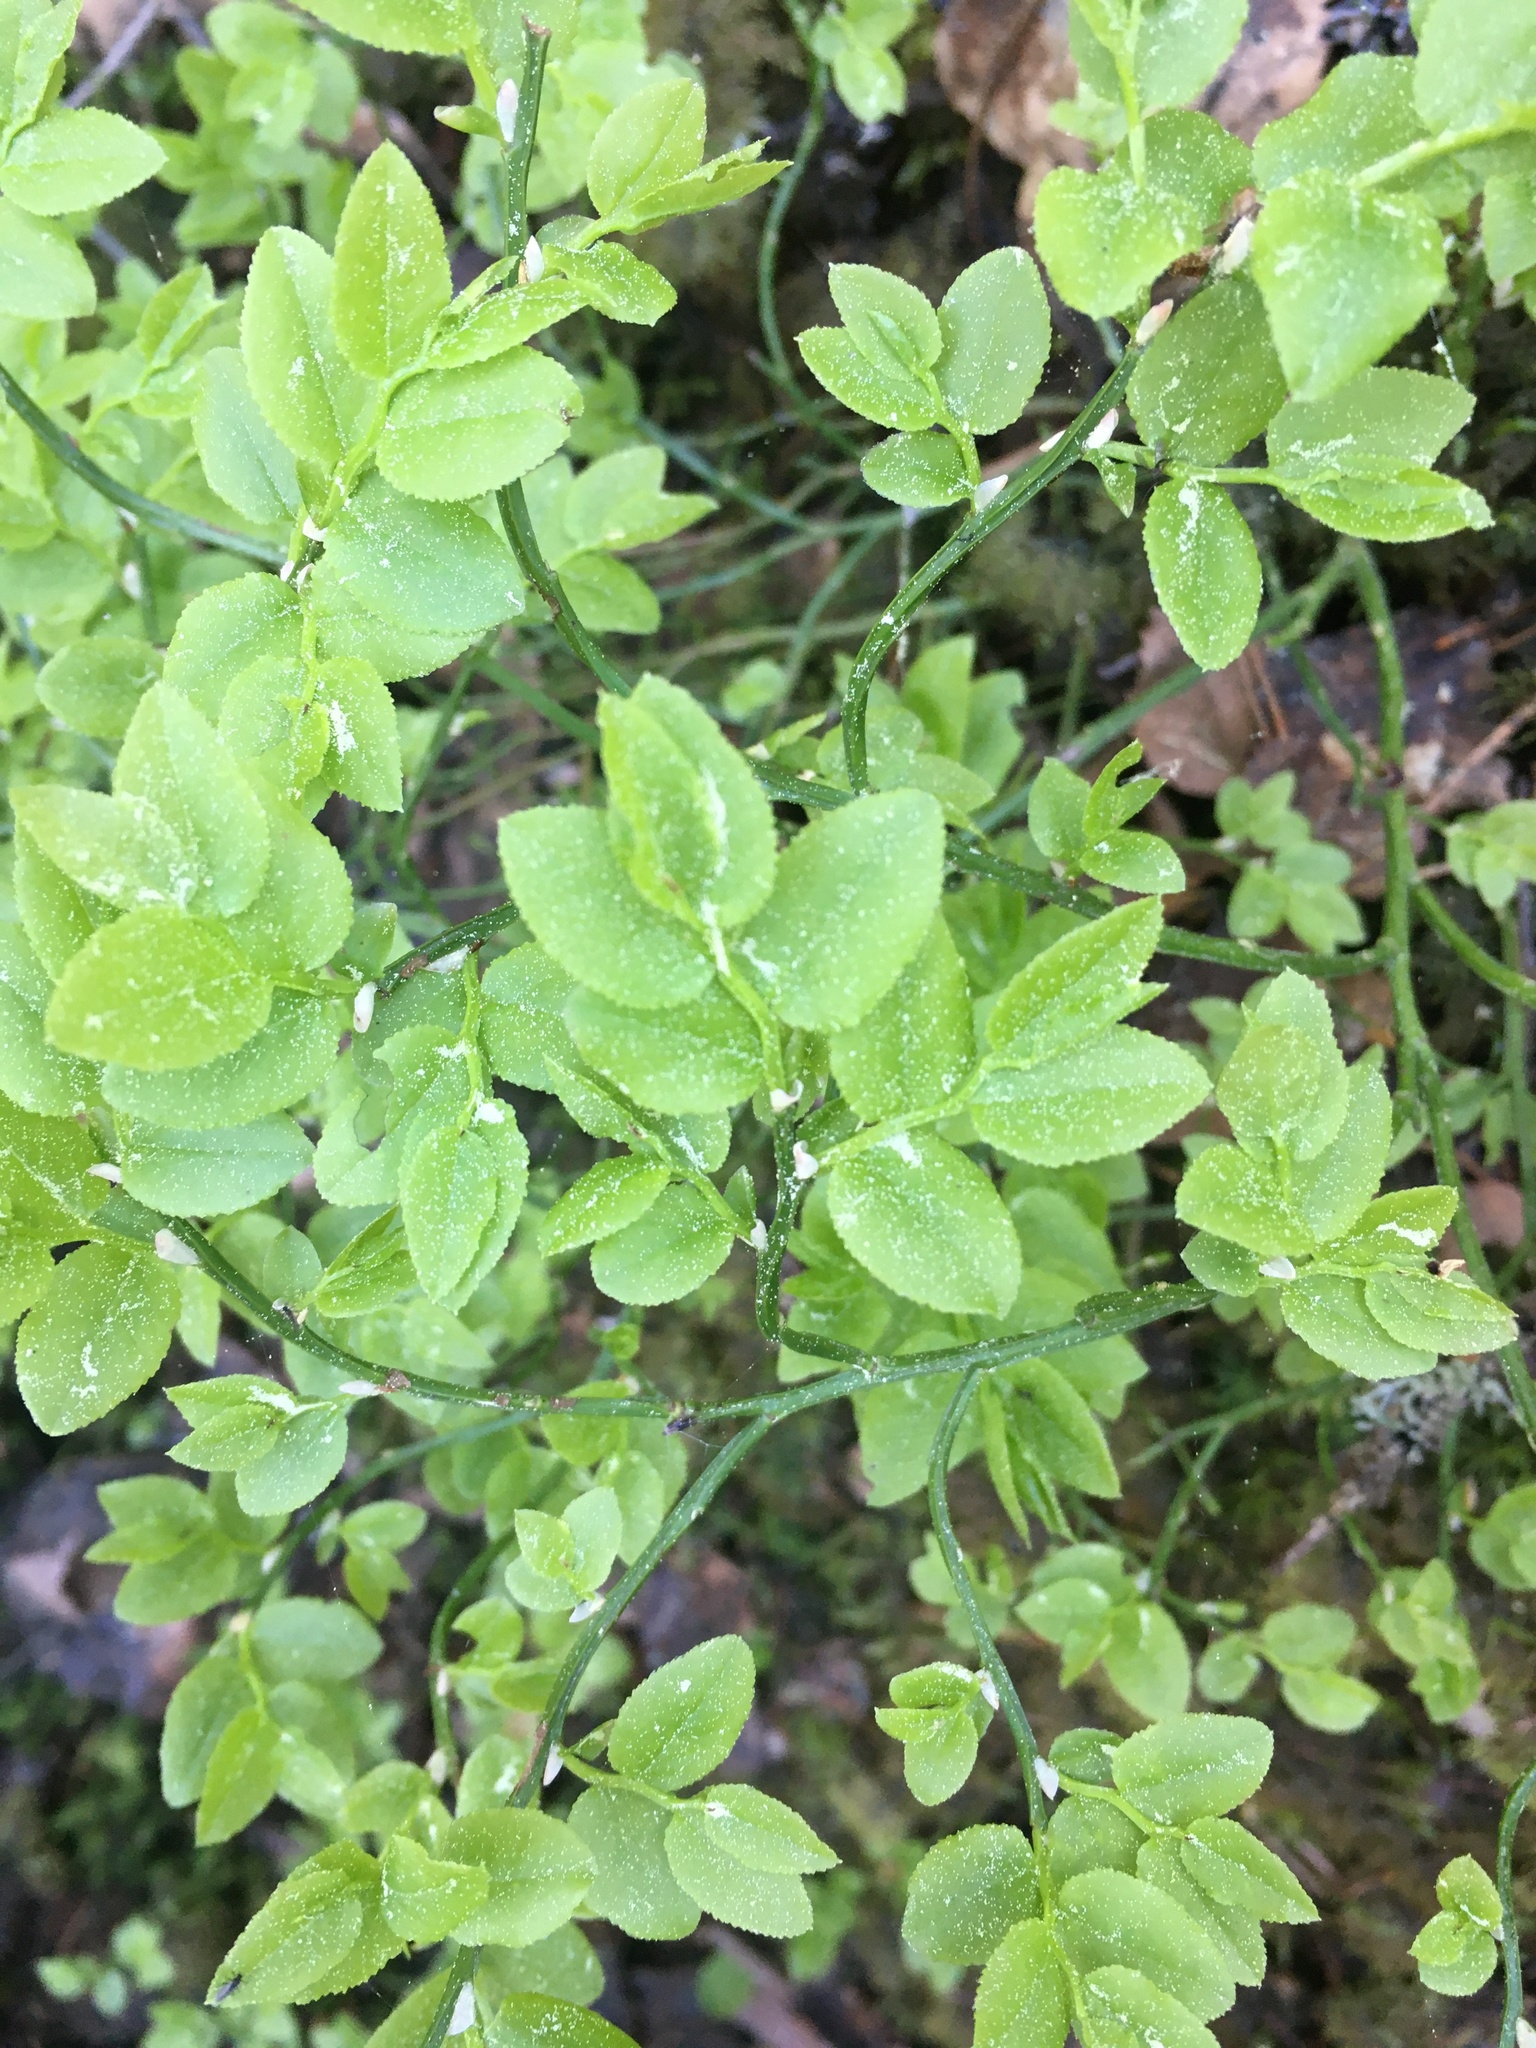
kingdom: Plantae
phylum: Tracheophyta
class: Magnoliopsida
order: Ericales
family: Ericaceae
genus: Vaccinium
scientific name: Vaccinium myrtillus
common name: Bilberry
